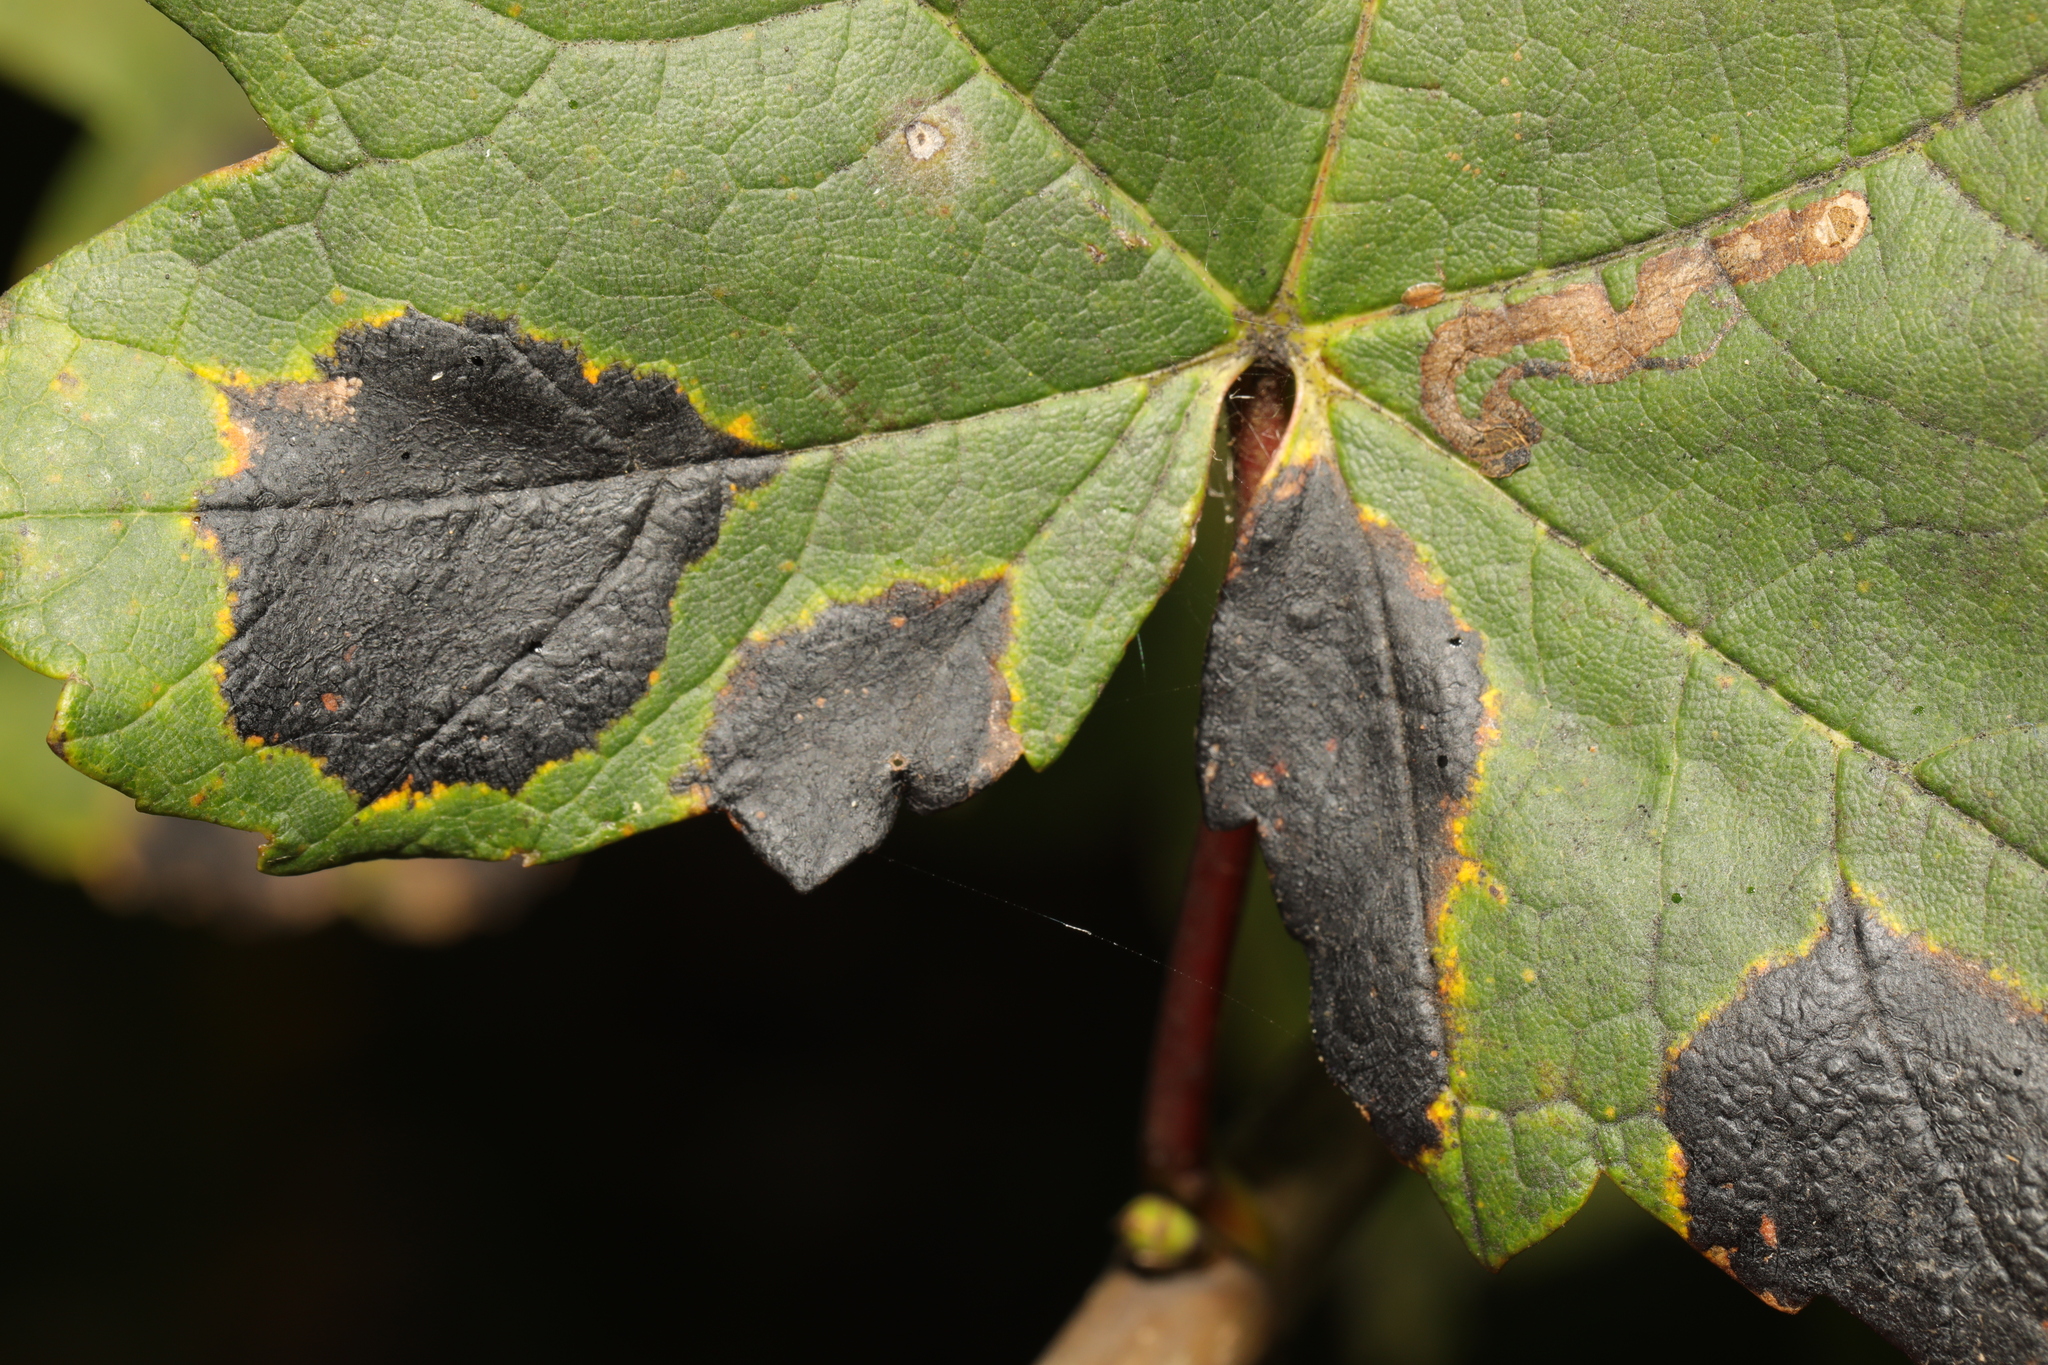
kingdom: Fungi
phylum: Ascomycota
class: Leotiomycetes
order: Rhytismatales
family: Rhytismataceae
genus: Rhytisma
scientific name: Rhytisma acerinum
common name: European tar spot
